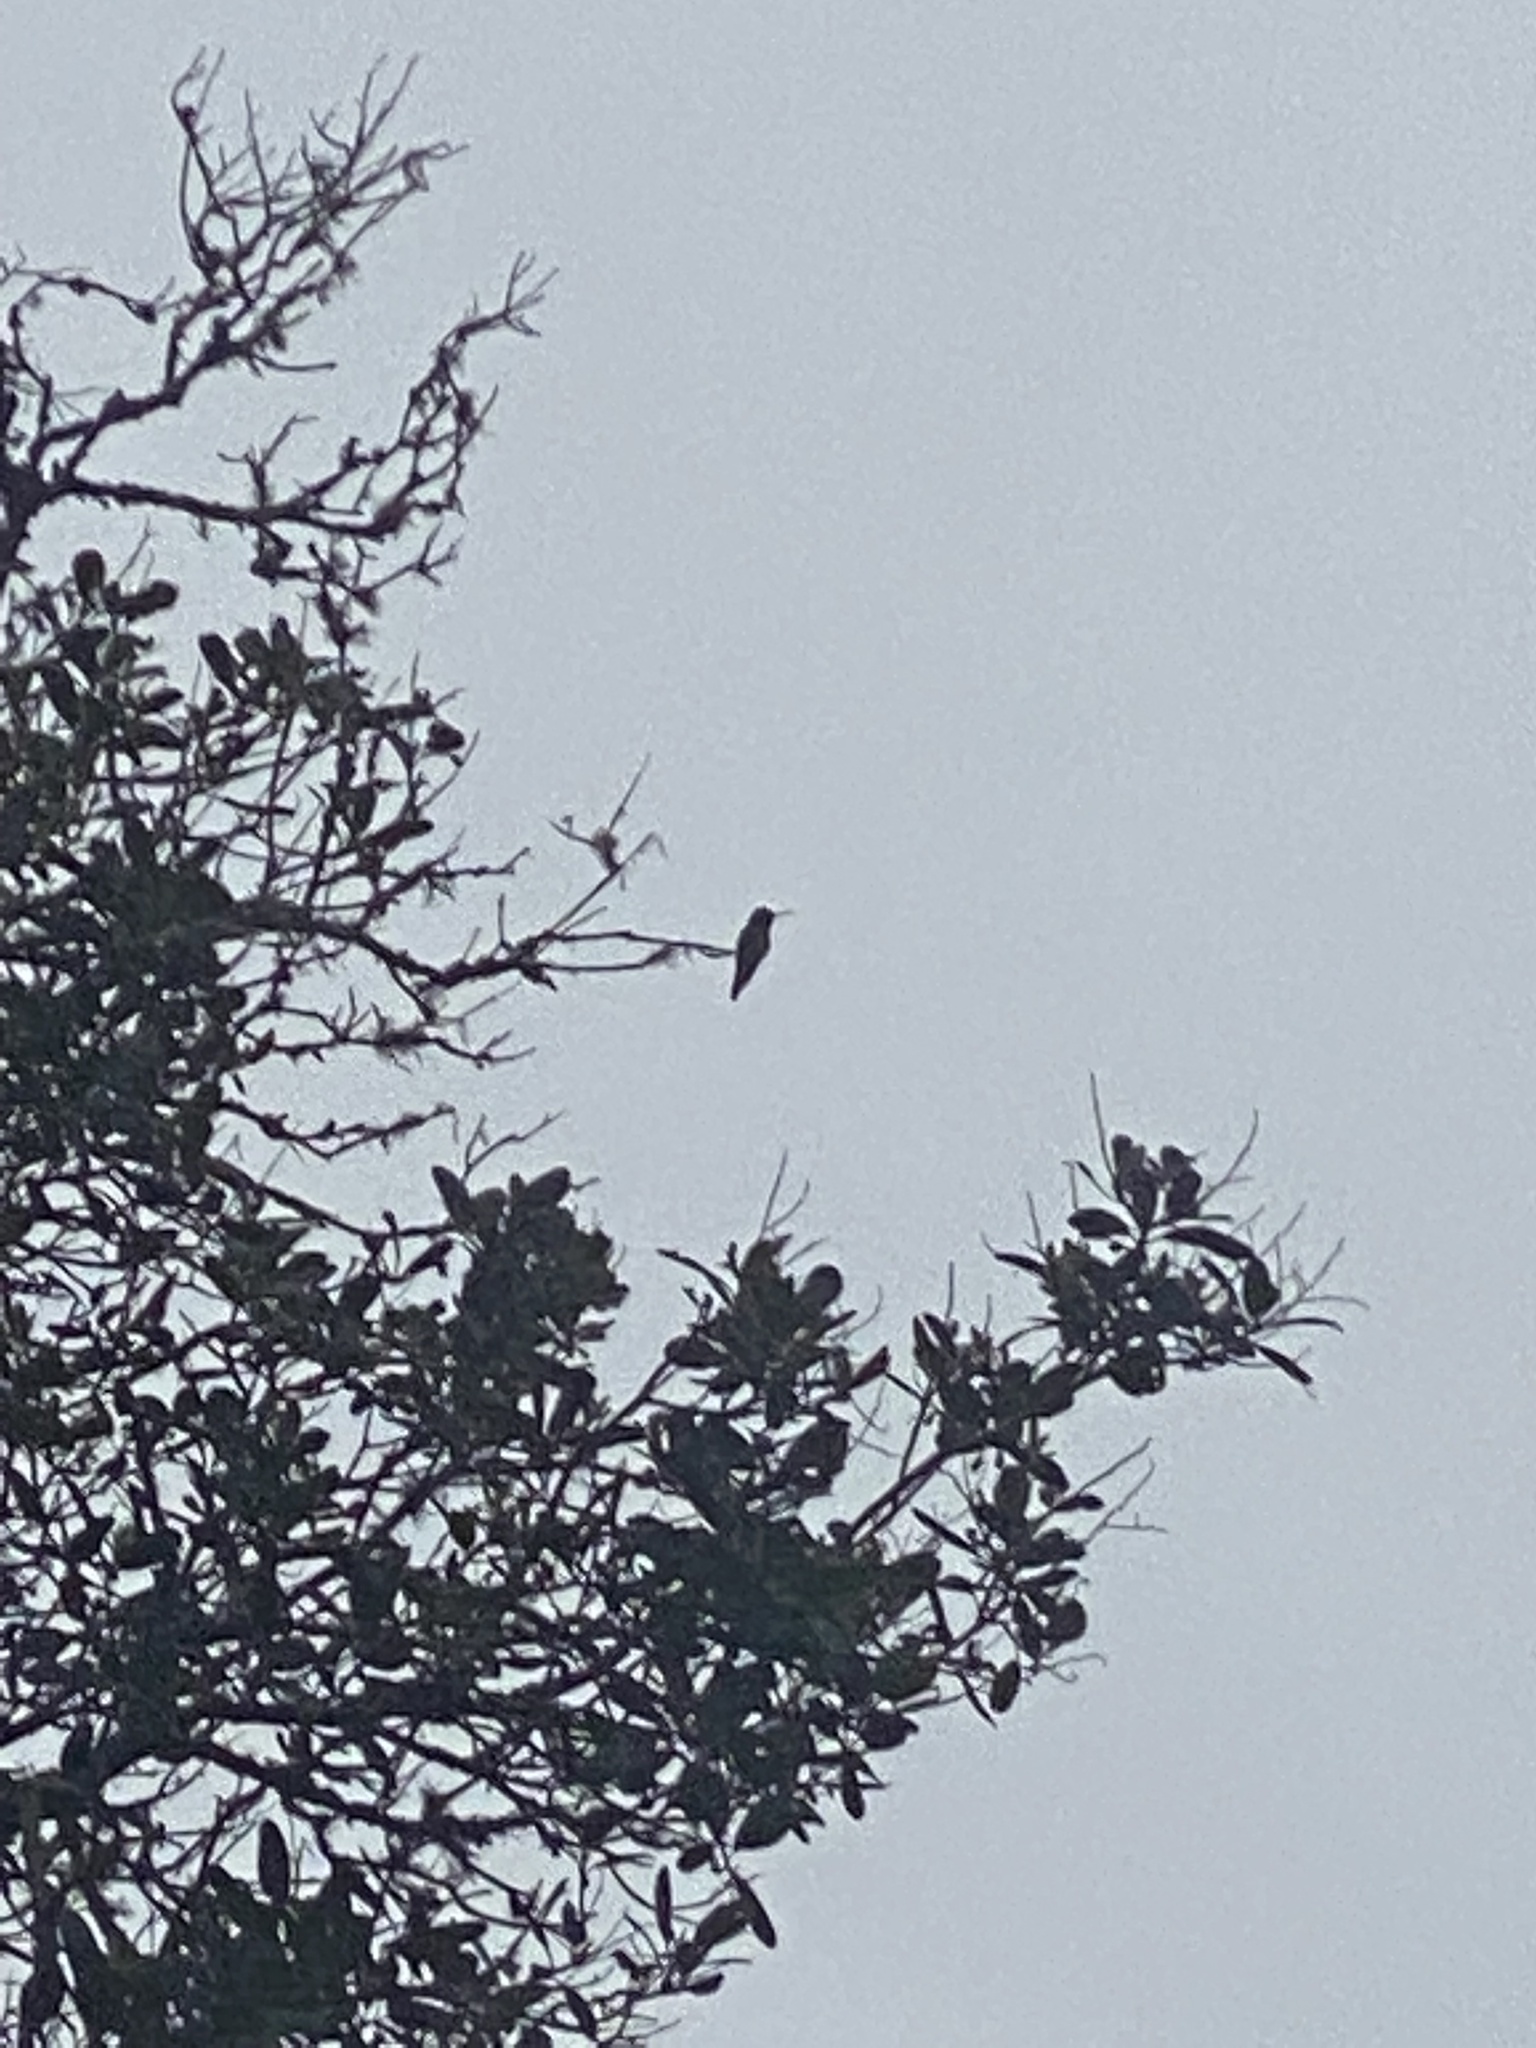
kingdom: Animalia
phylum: Chordata
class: Aves
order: Apodiformes
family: Trochilidae
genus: Calypte
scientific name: Calypte anna
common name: Anna's hummingbird
